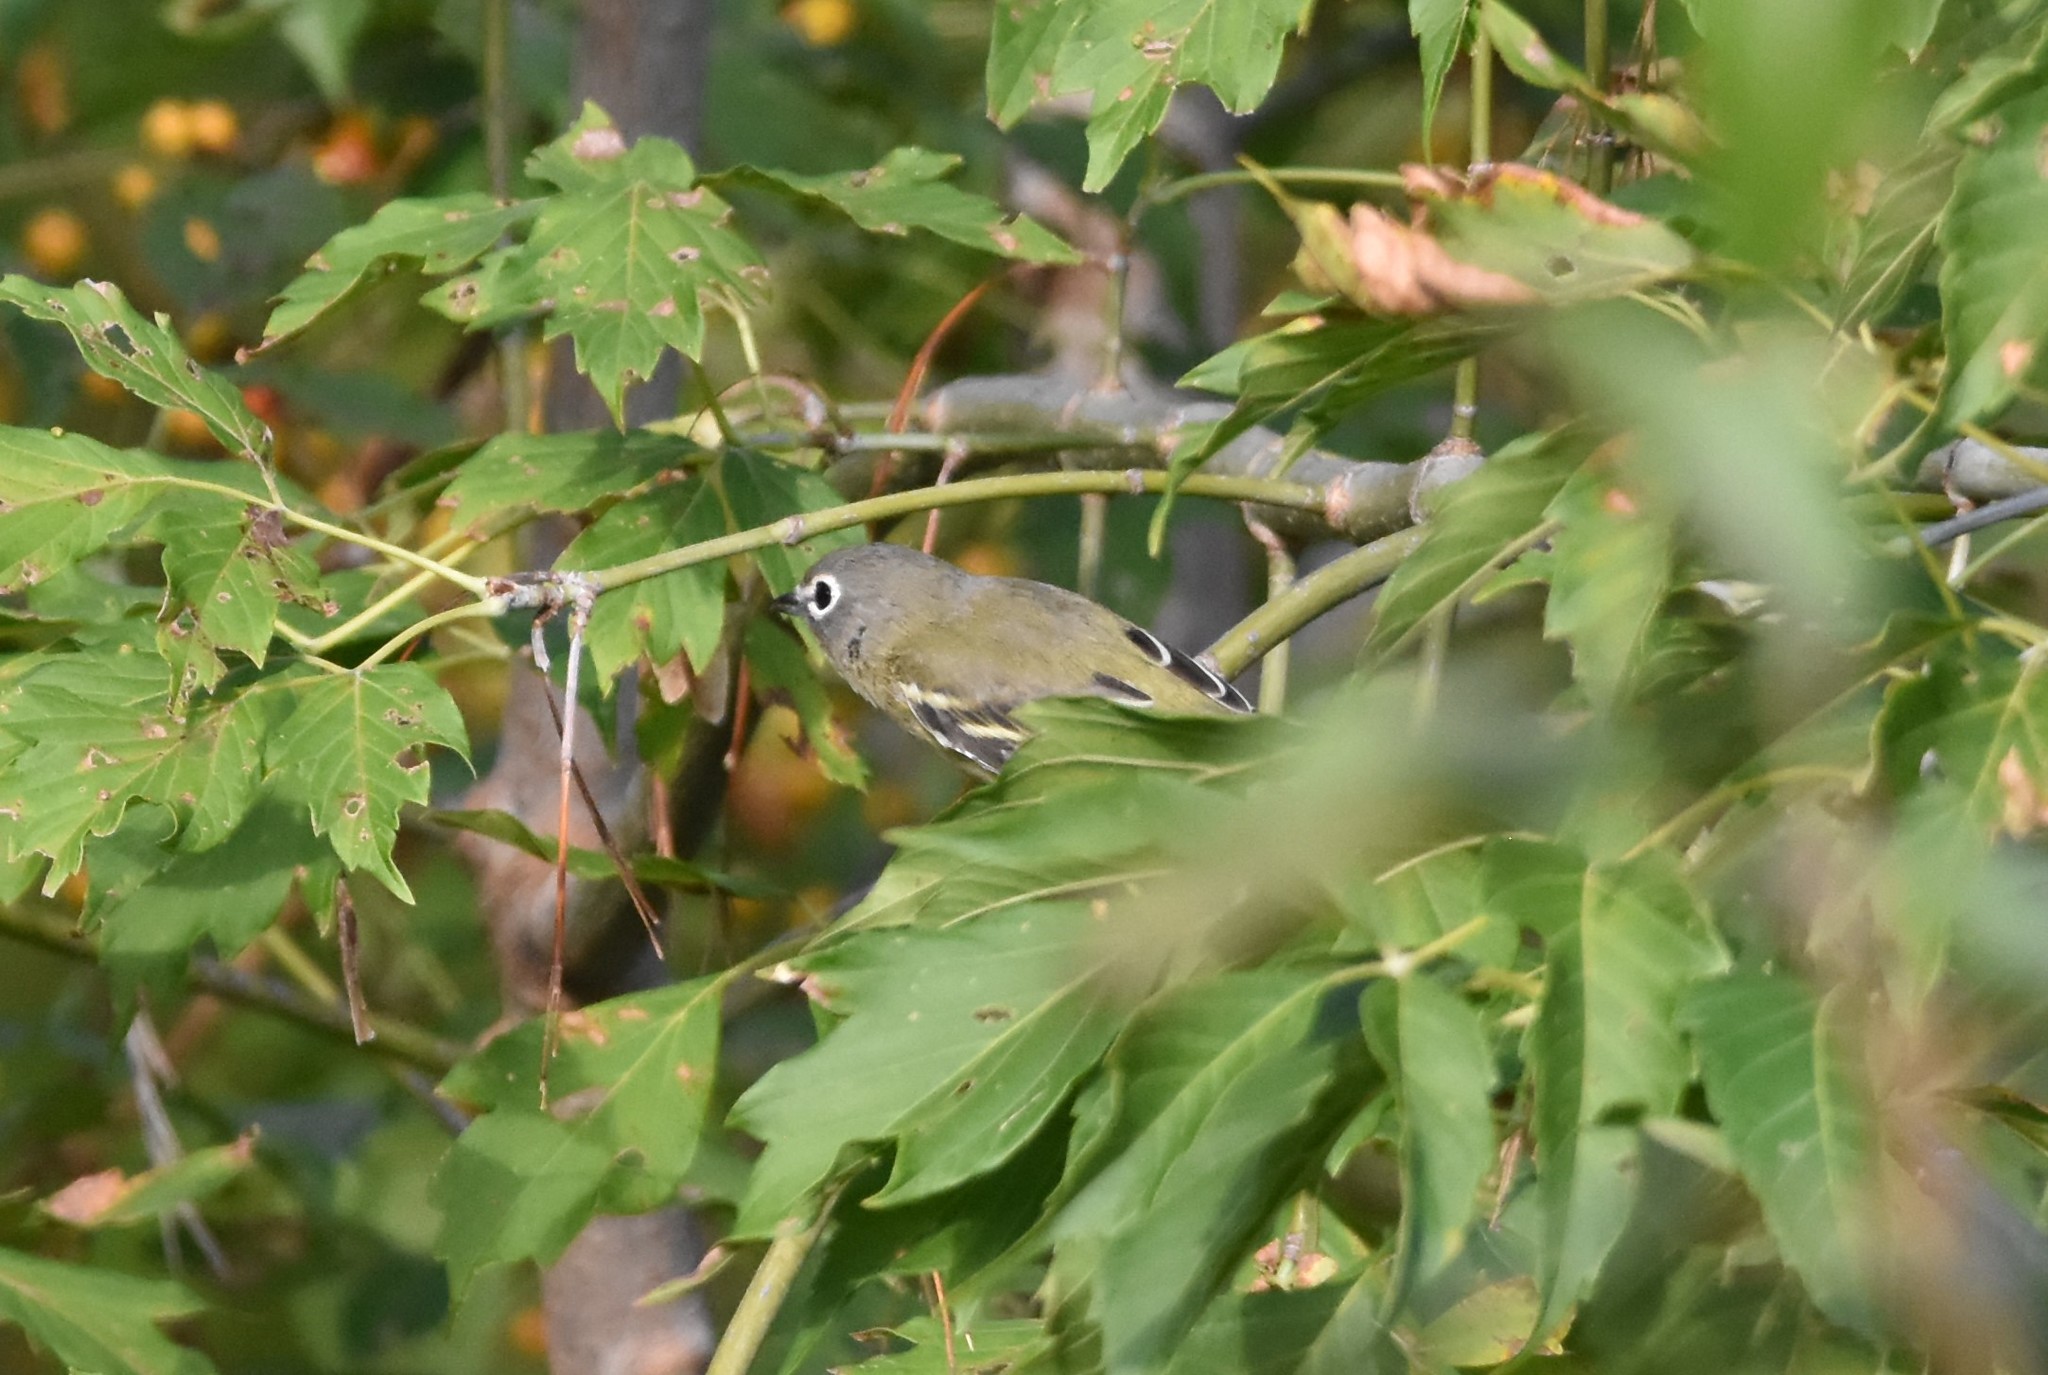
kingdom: Animalia
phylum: Chordata
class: Aves
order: Passeriformes
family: Vireonidae
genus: Vireo
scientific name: Vireo solitarius
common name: Blue-headed vireo
